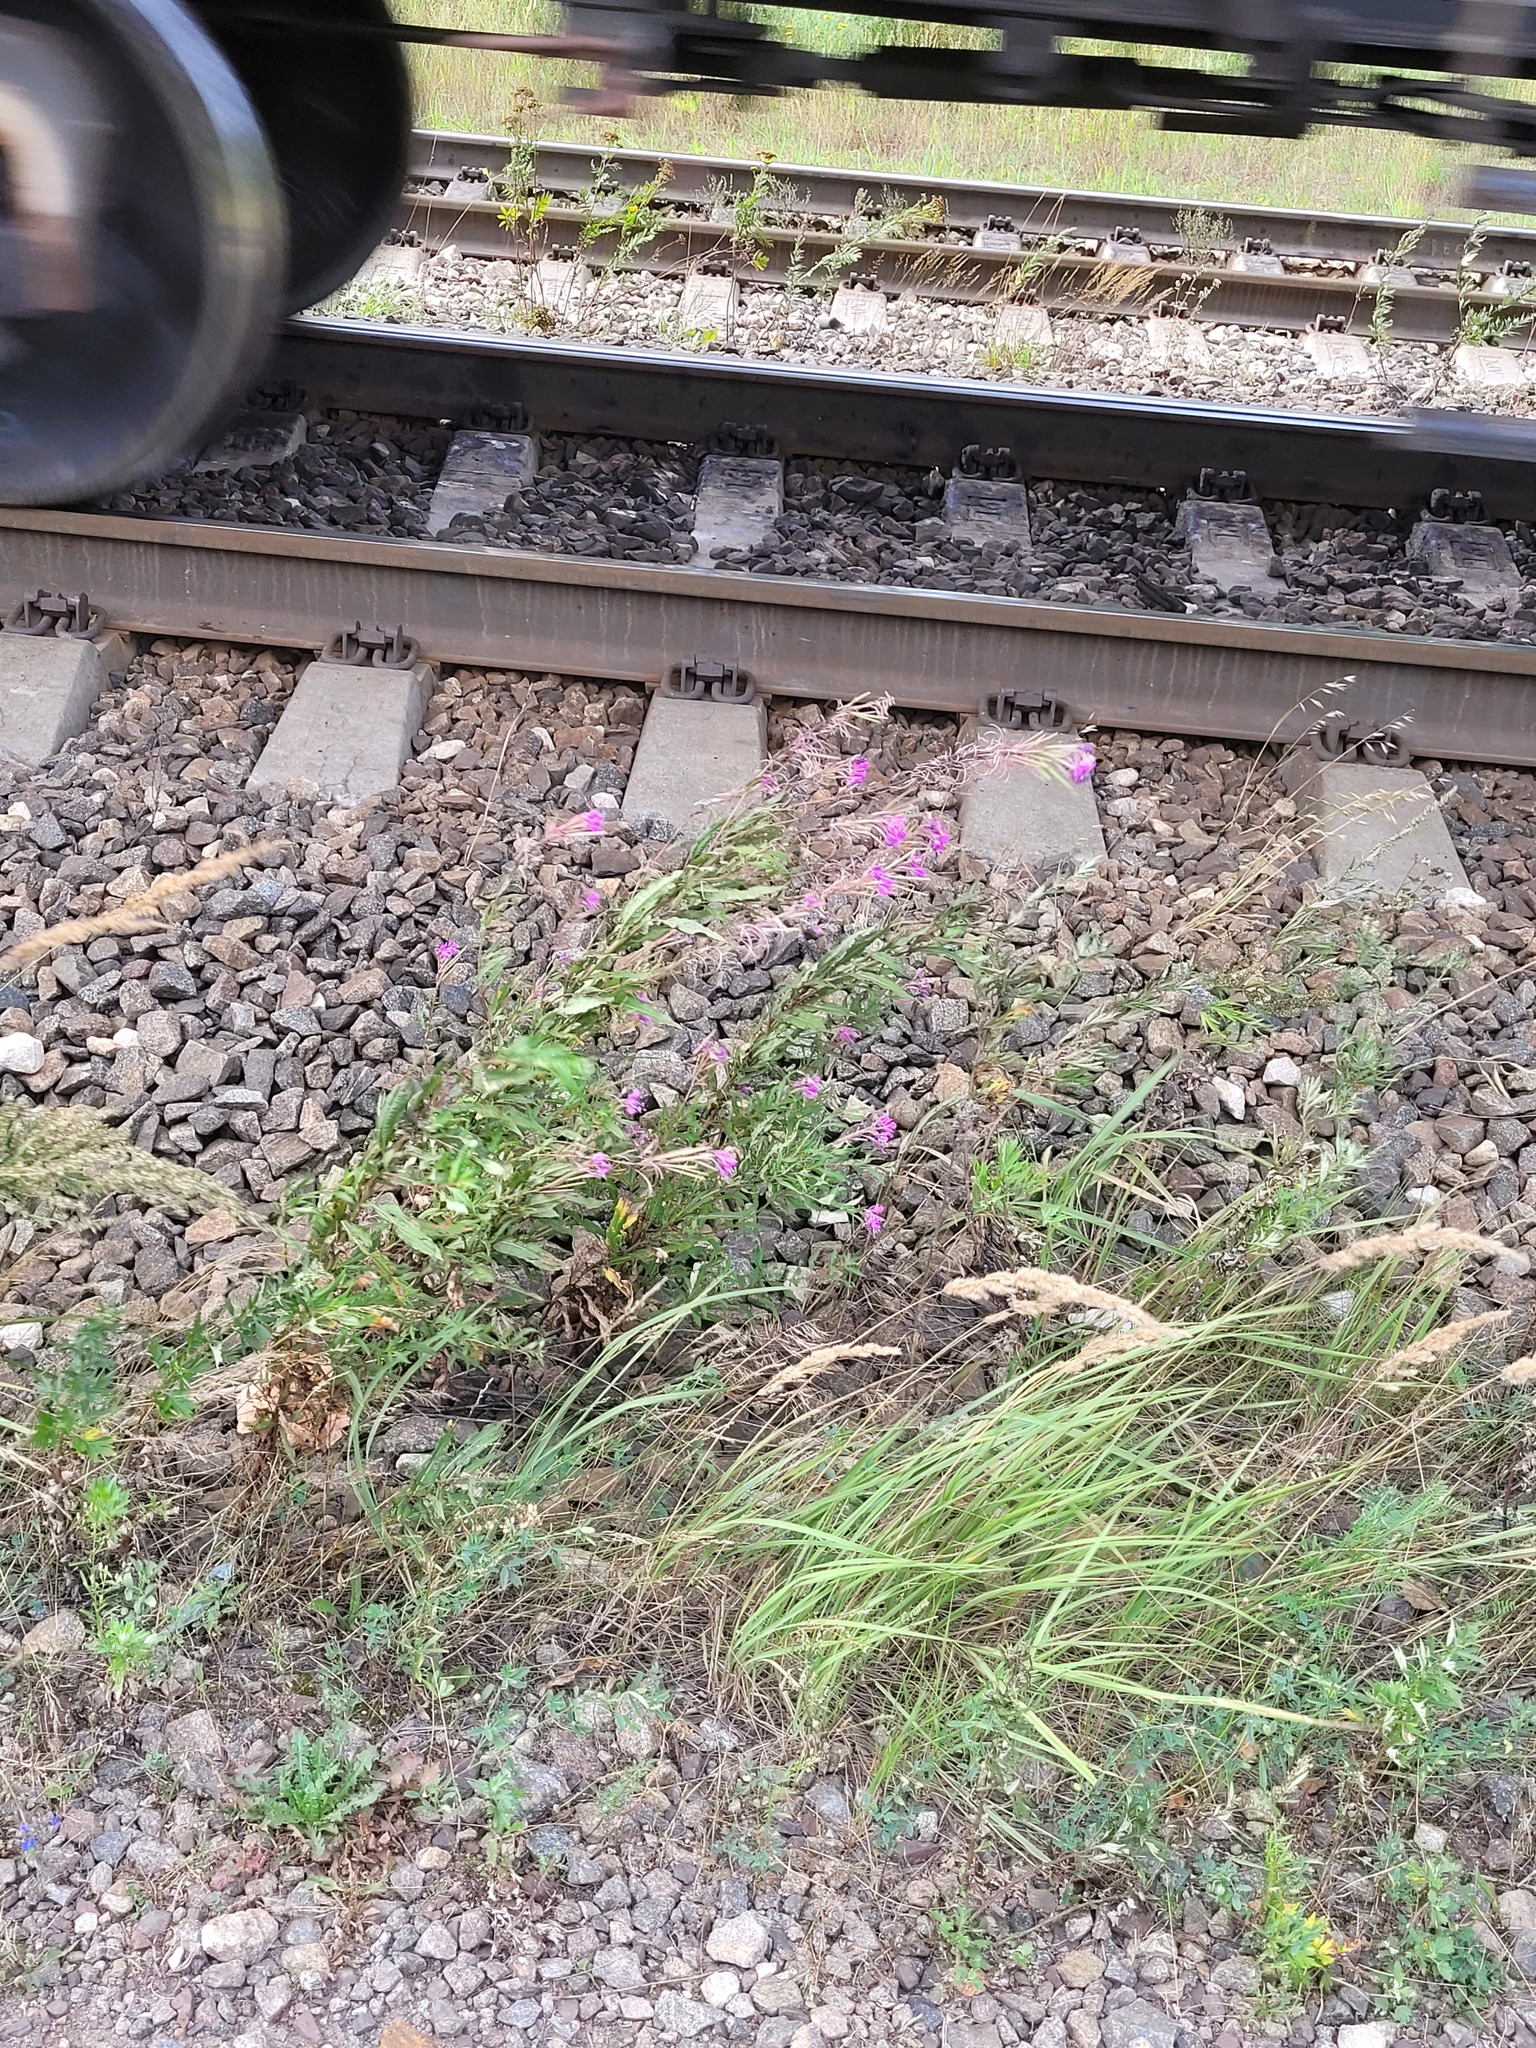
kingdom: Plantae
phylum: Tracheophyta
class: Magnoliopsida
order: Myrtales
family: Onagraceae
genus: Chamaenerion
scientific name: Chamaenerion angustifolium
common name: Fireweed
